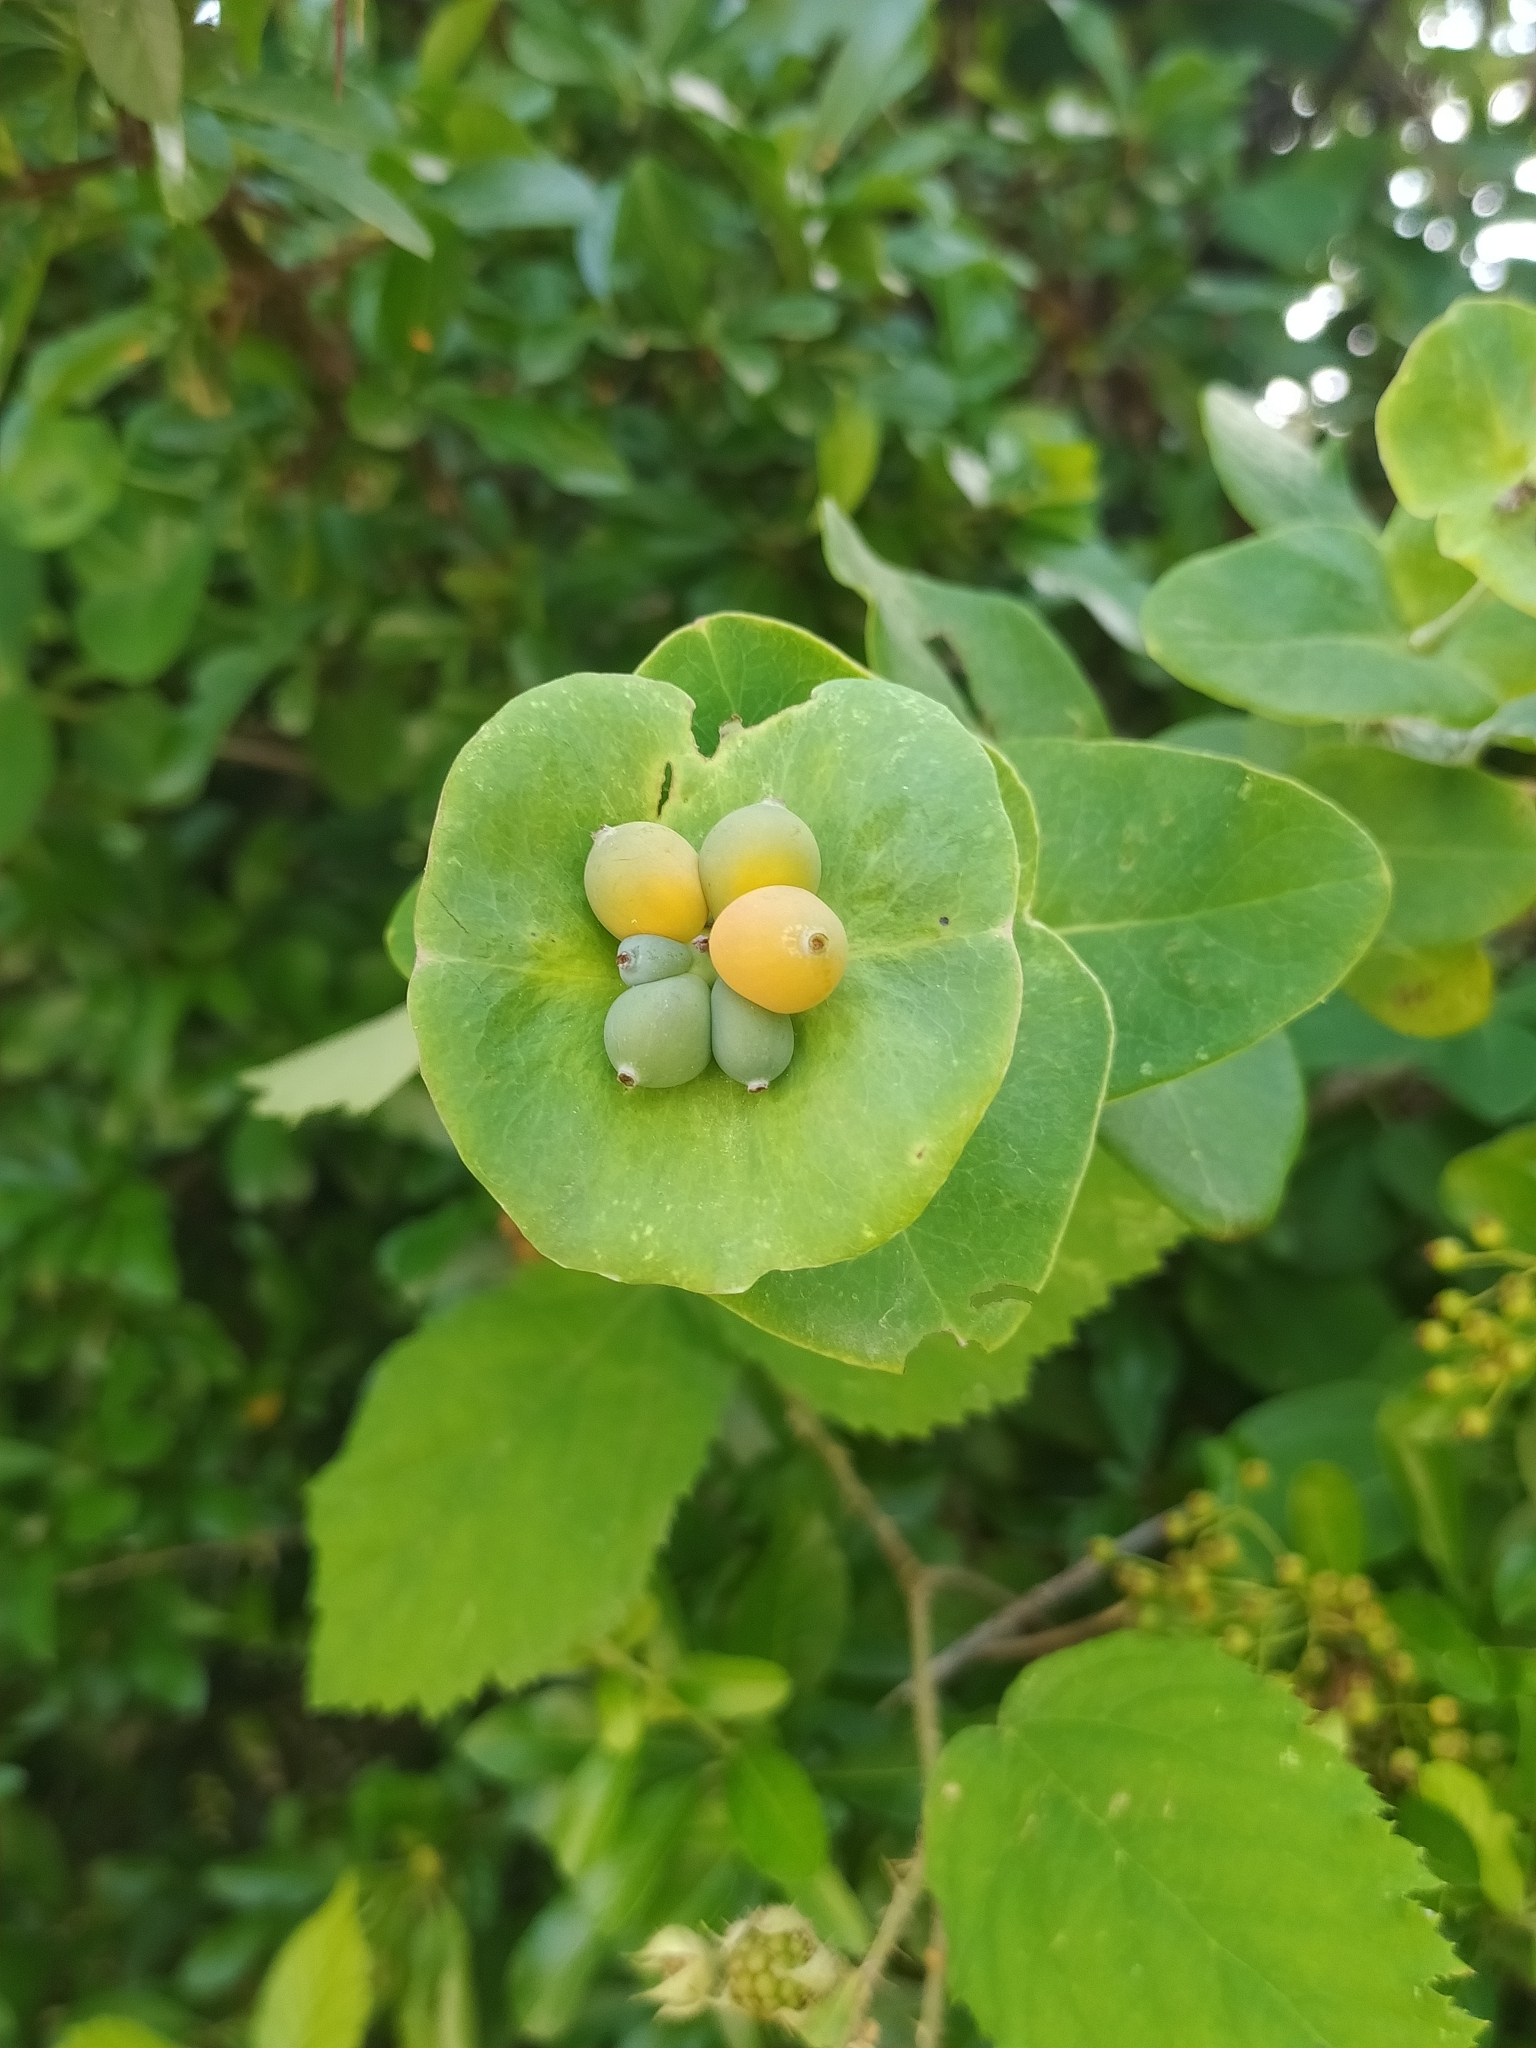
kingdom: Plantae
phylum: Tracheophyta
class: Magnoliopsida
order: Dipsacales
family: Caprifoliaceae
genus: Lonicera
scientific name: Lonicera caprifolium
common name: Perfoliate honeysuckle
